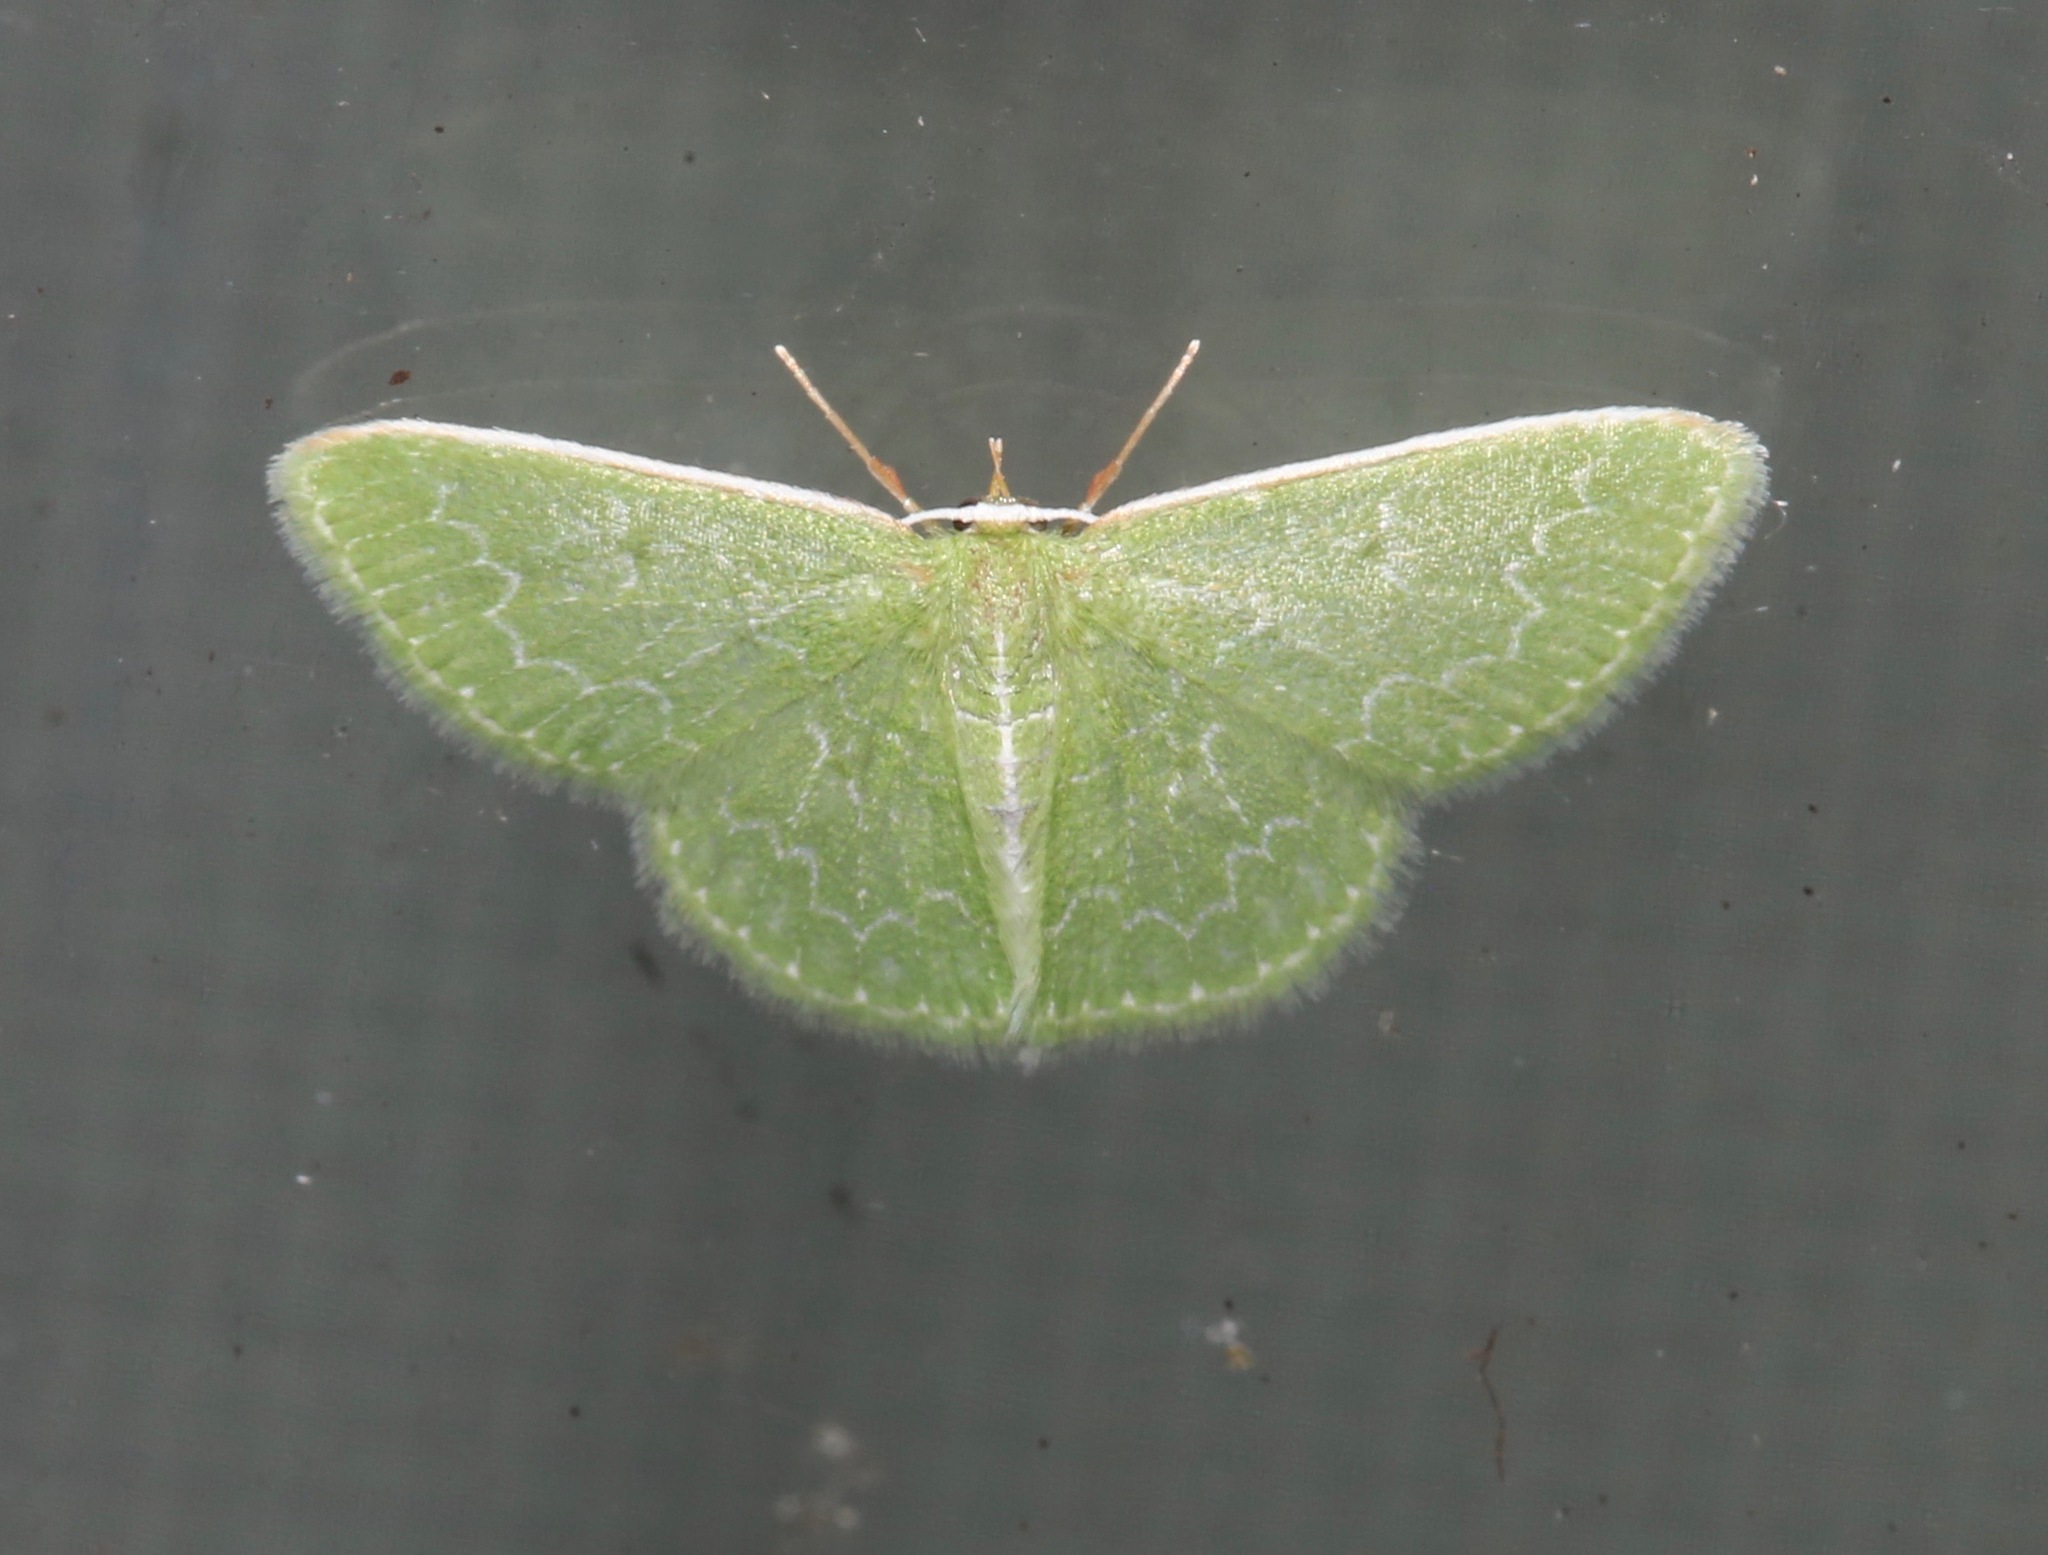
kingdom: Animalia
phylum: Arthropoda
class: Insecta
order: Lepidoptera
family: Geometridae
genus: Synchlora
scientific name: Synchlora frondaria
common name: Southern emerald
